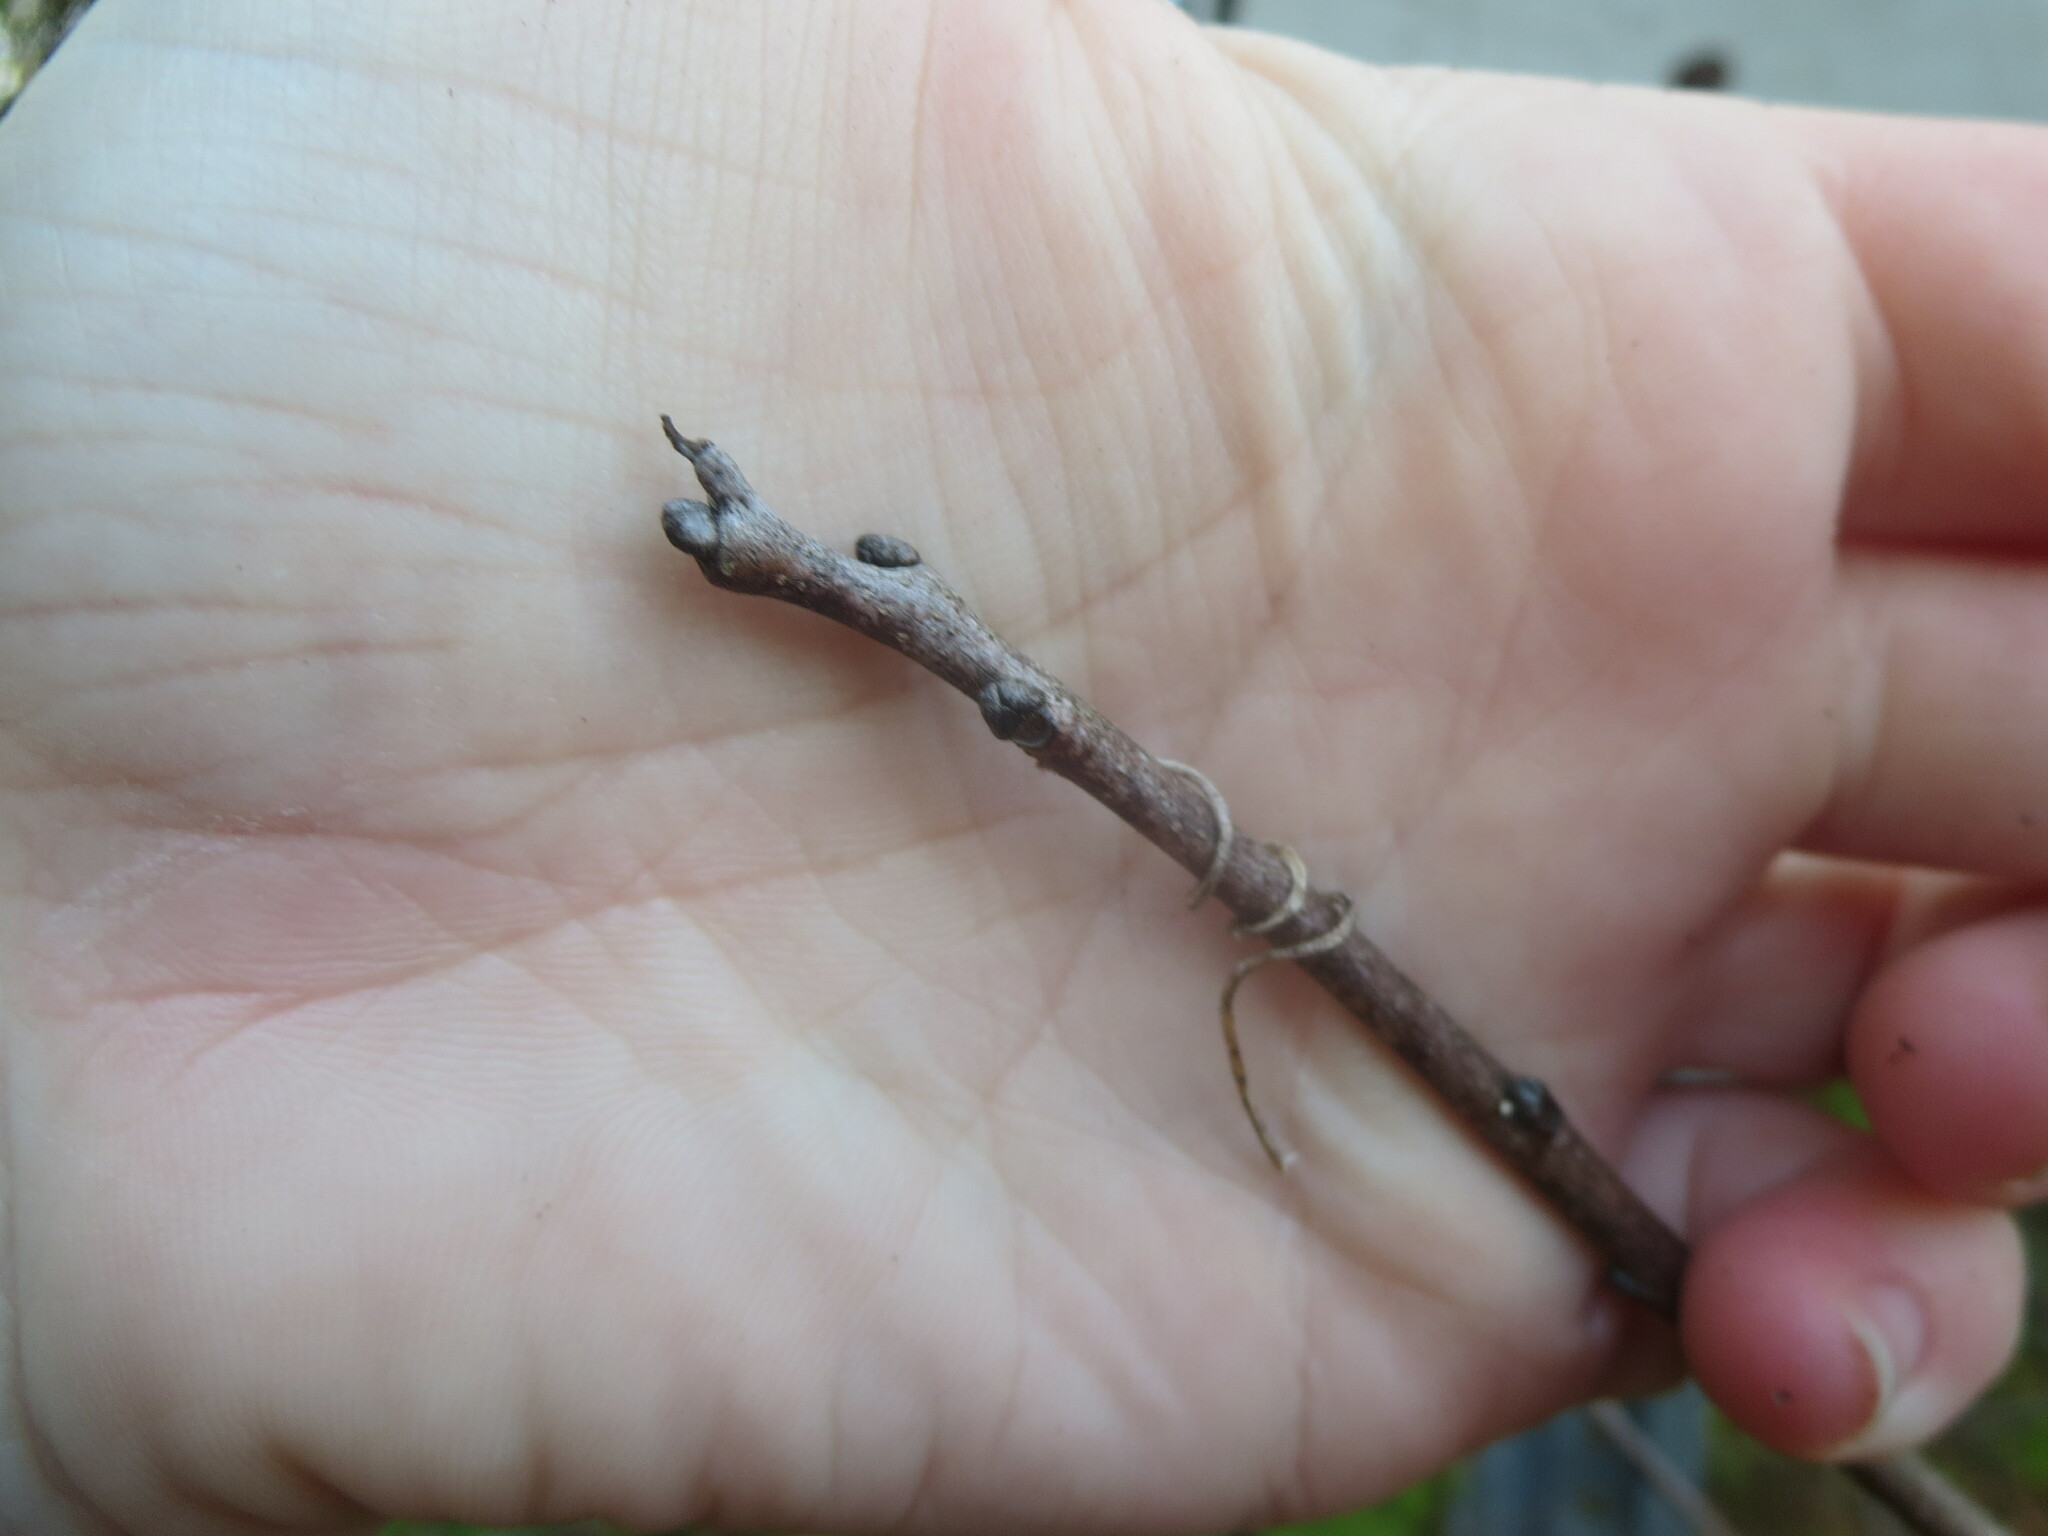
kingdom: Plantae
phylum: Tracheophyta
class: Magnoliopsida
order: Ericales
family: Ebenaceae
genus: Diospyros
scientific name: Diospyros virginiana
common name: Persimmon
